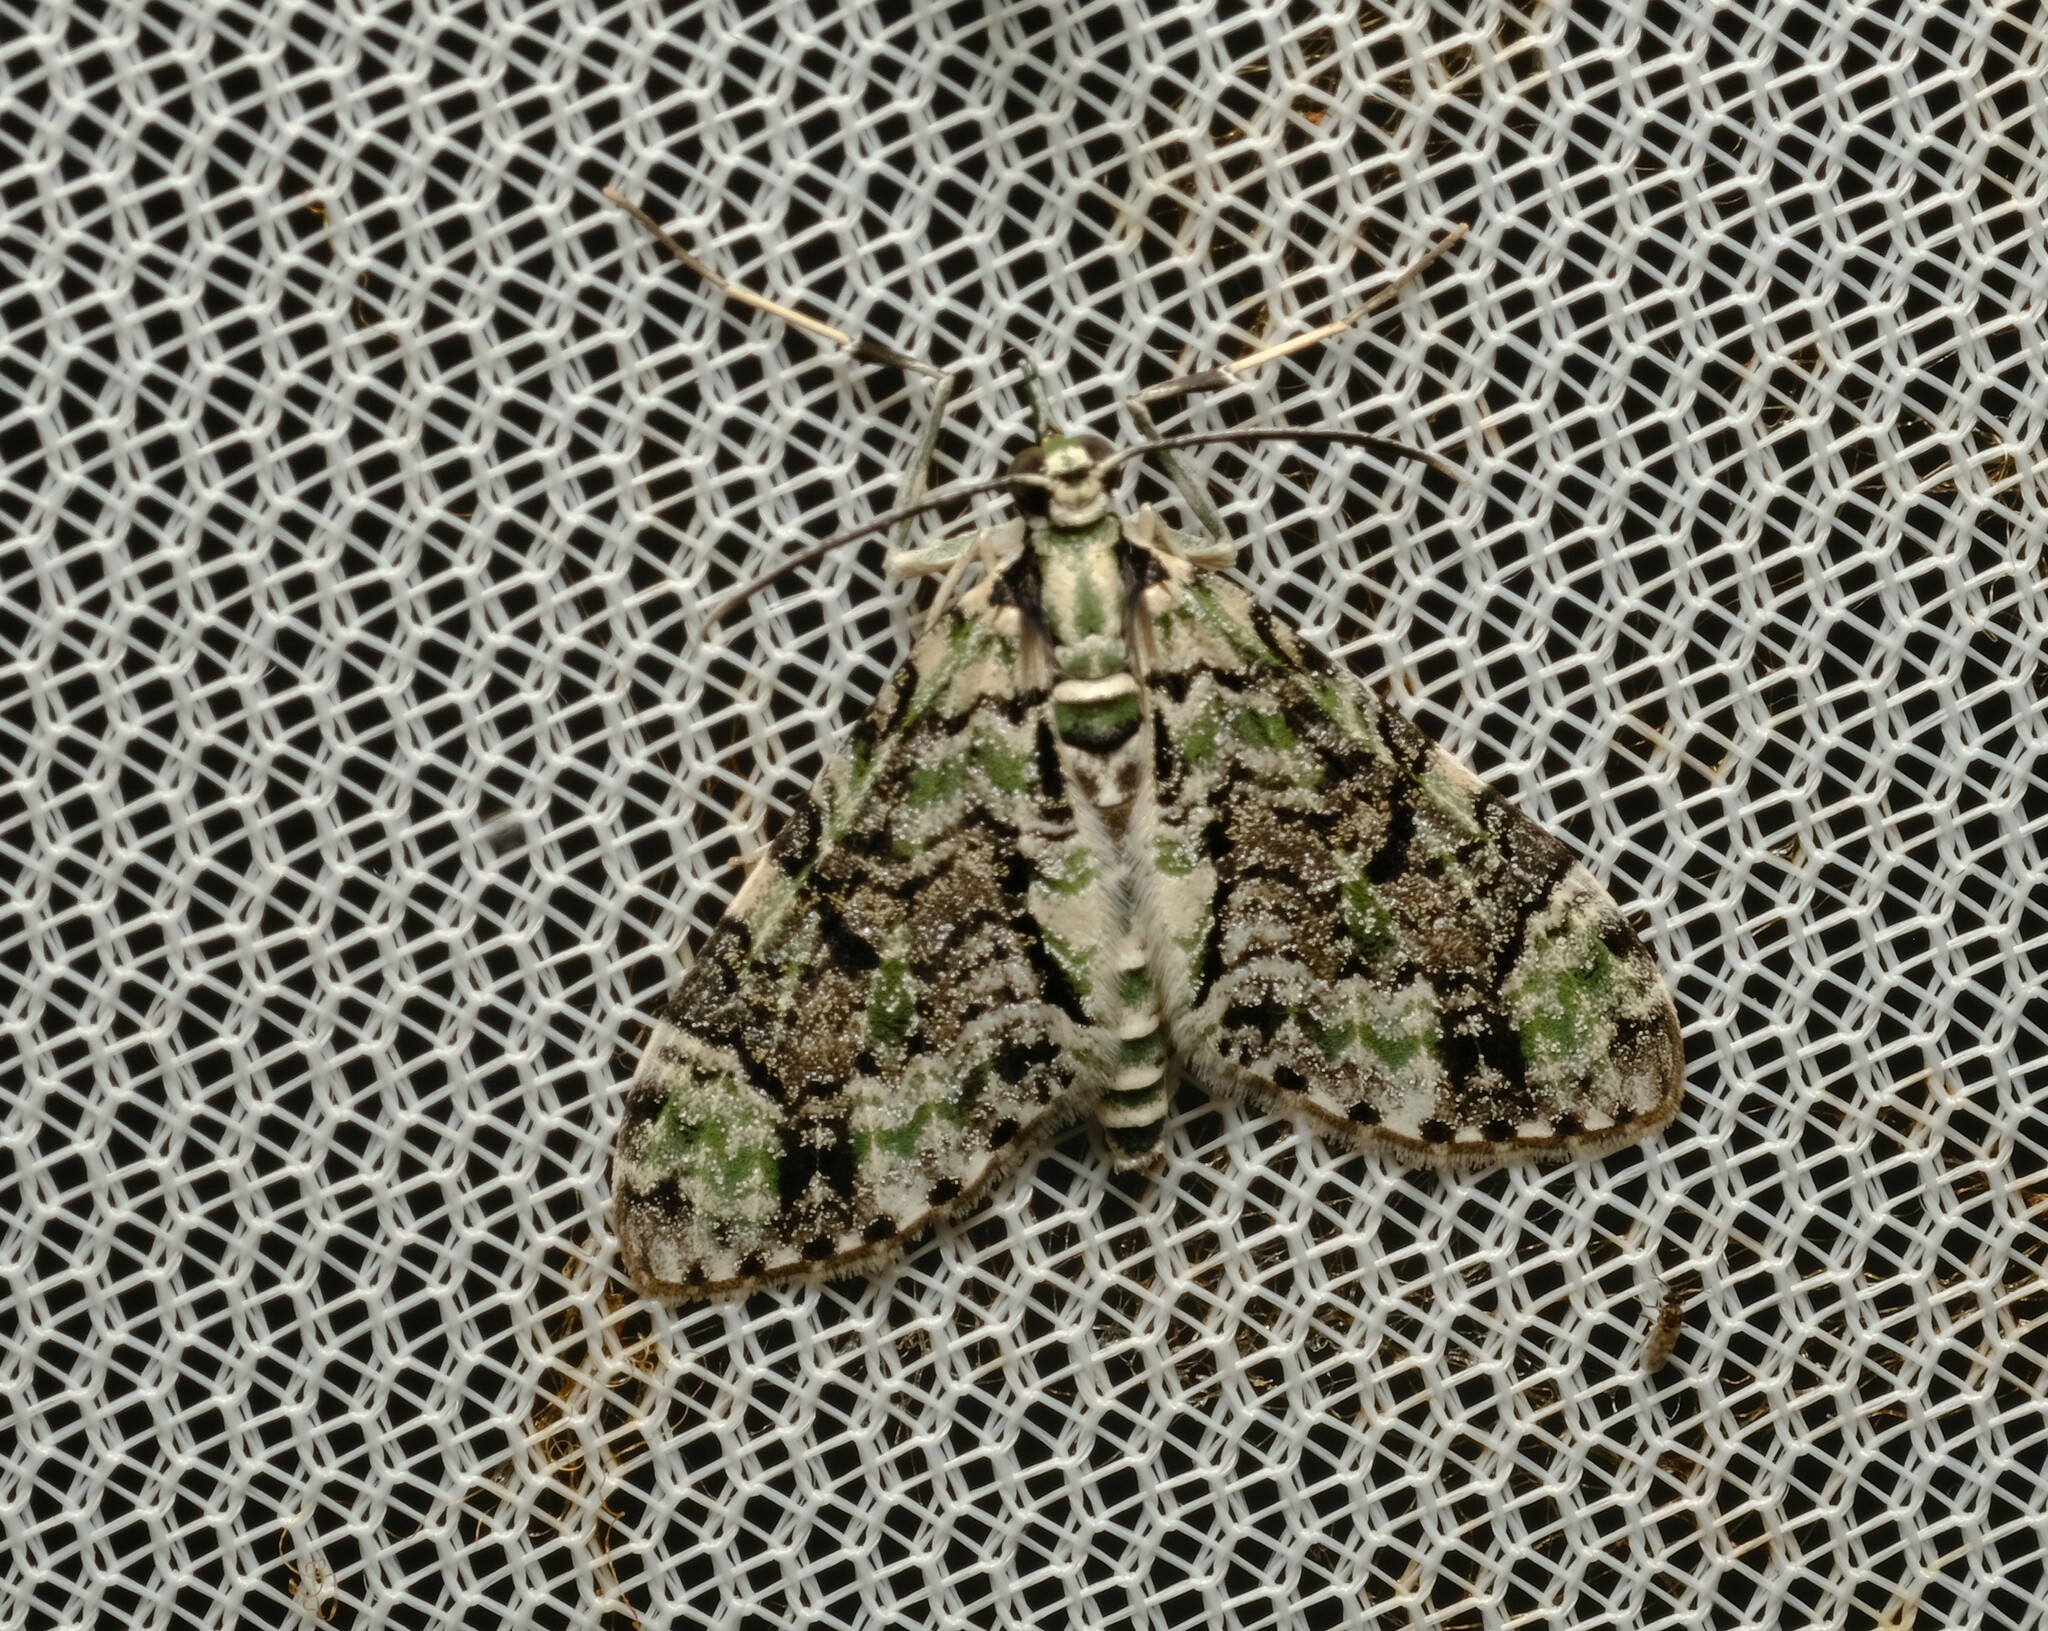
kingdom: Animalia
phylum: Arthropoda
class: Insecta
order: Lepidoptera
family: Geometridae
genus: Sauris
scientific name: Sauris lichenias
